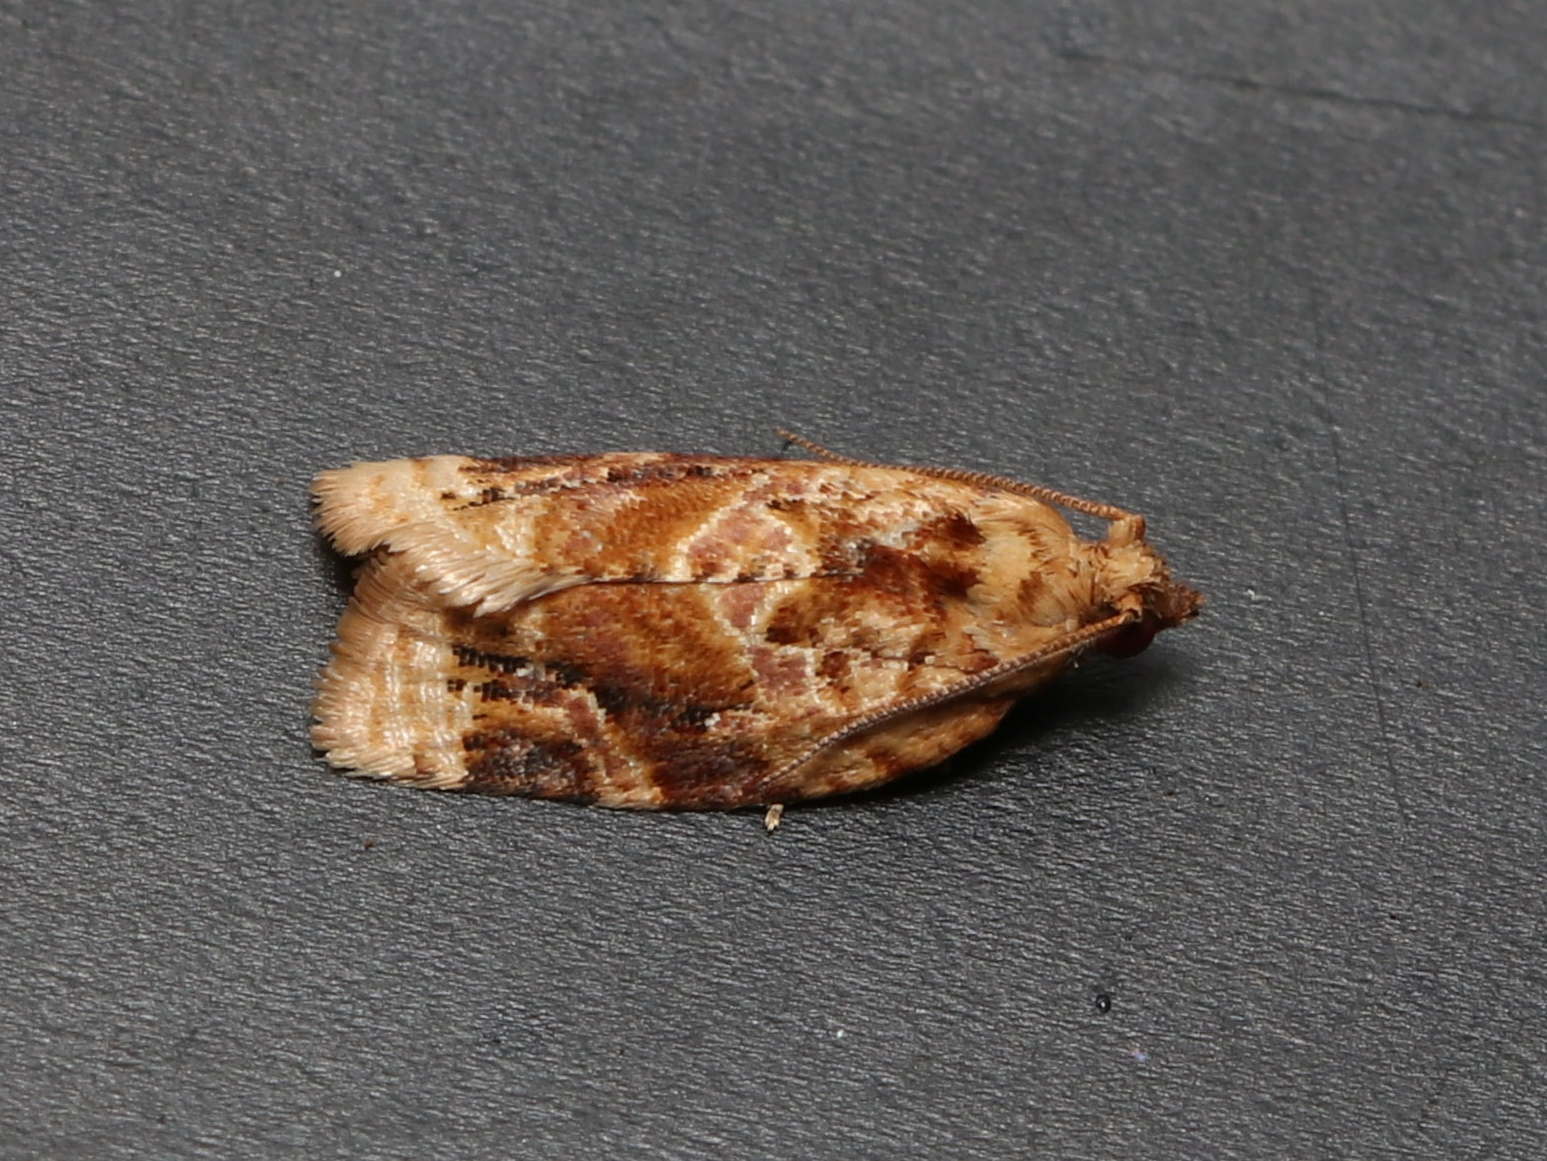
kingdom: Animalia
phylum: Arthropoda
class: Insecta
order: Lepidoptera
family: Tortricidae
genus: Argyrotaenia
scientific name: Argyrotaenia velutinana
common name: Red-banded leafroller moth
